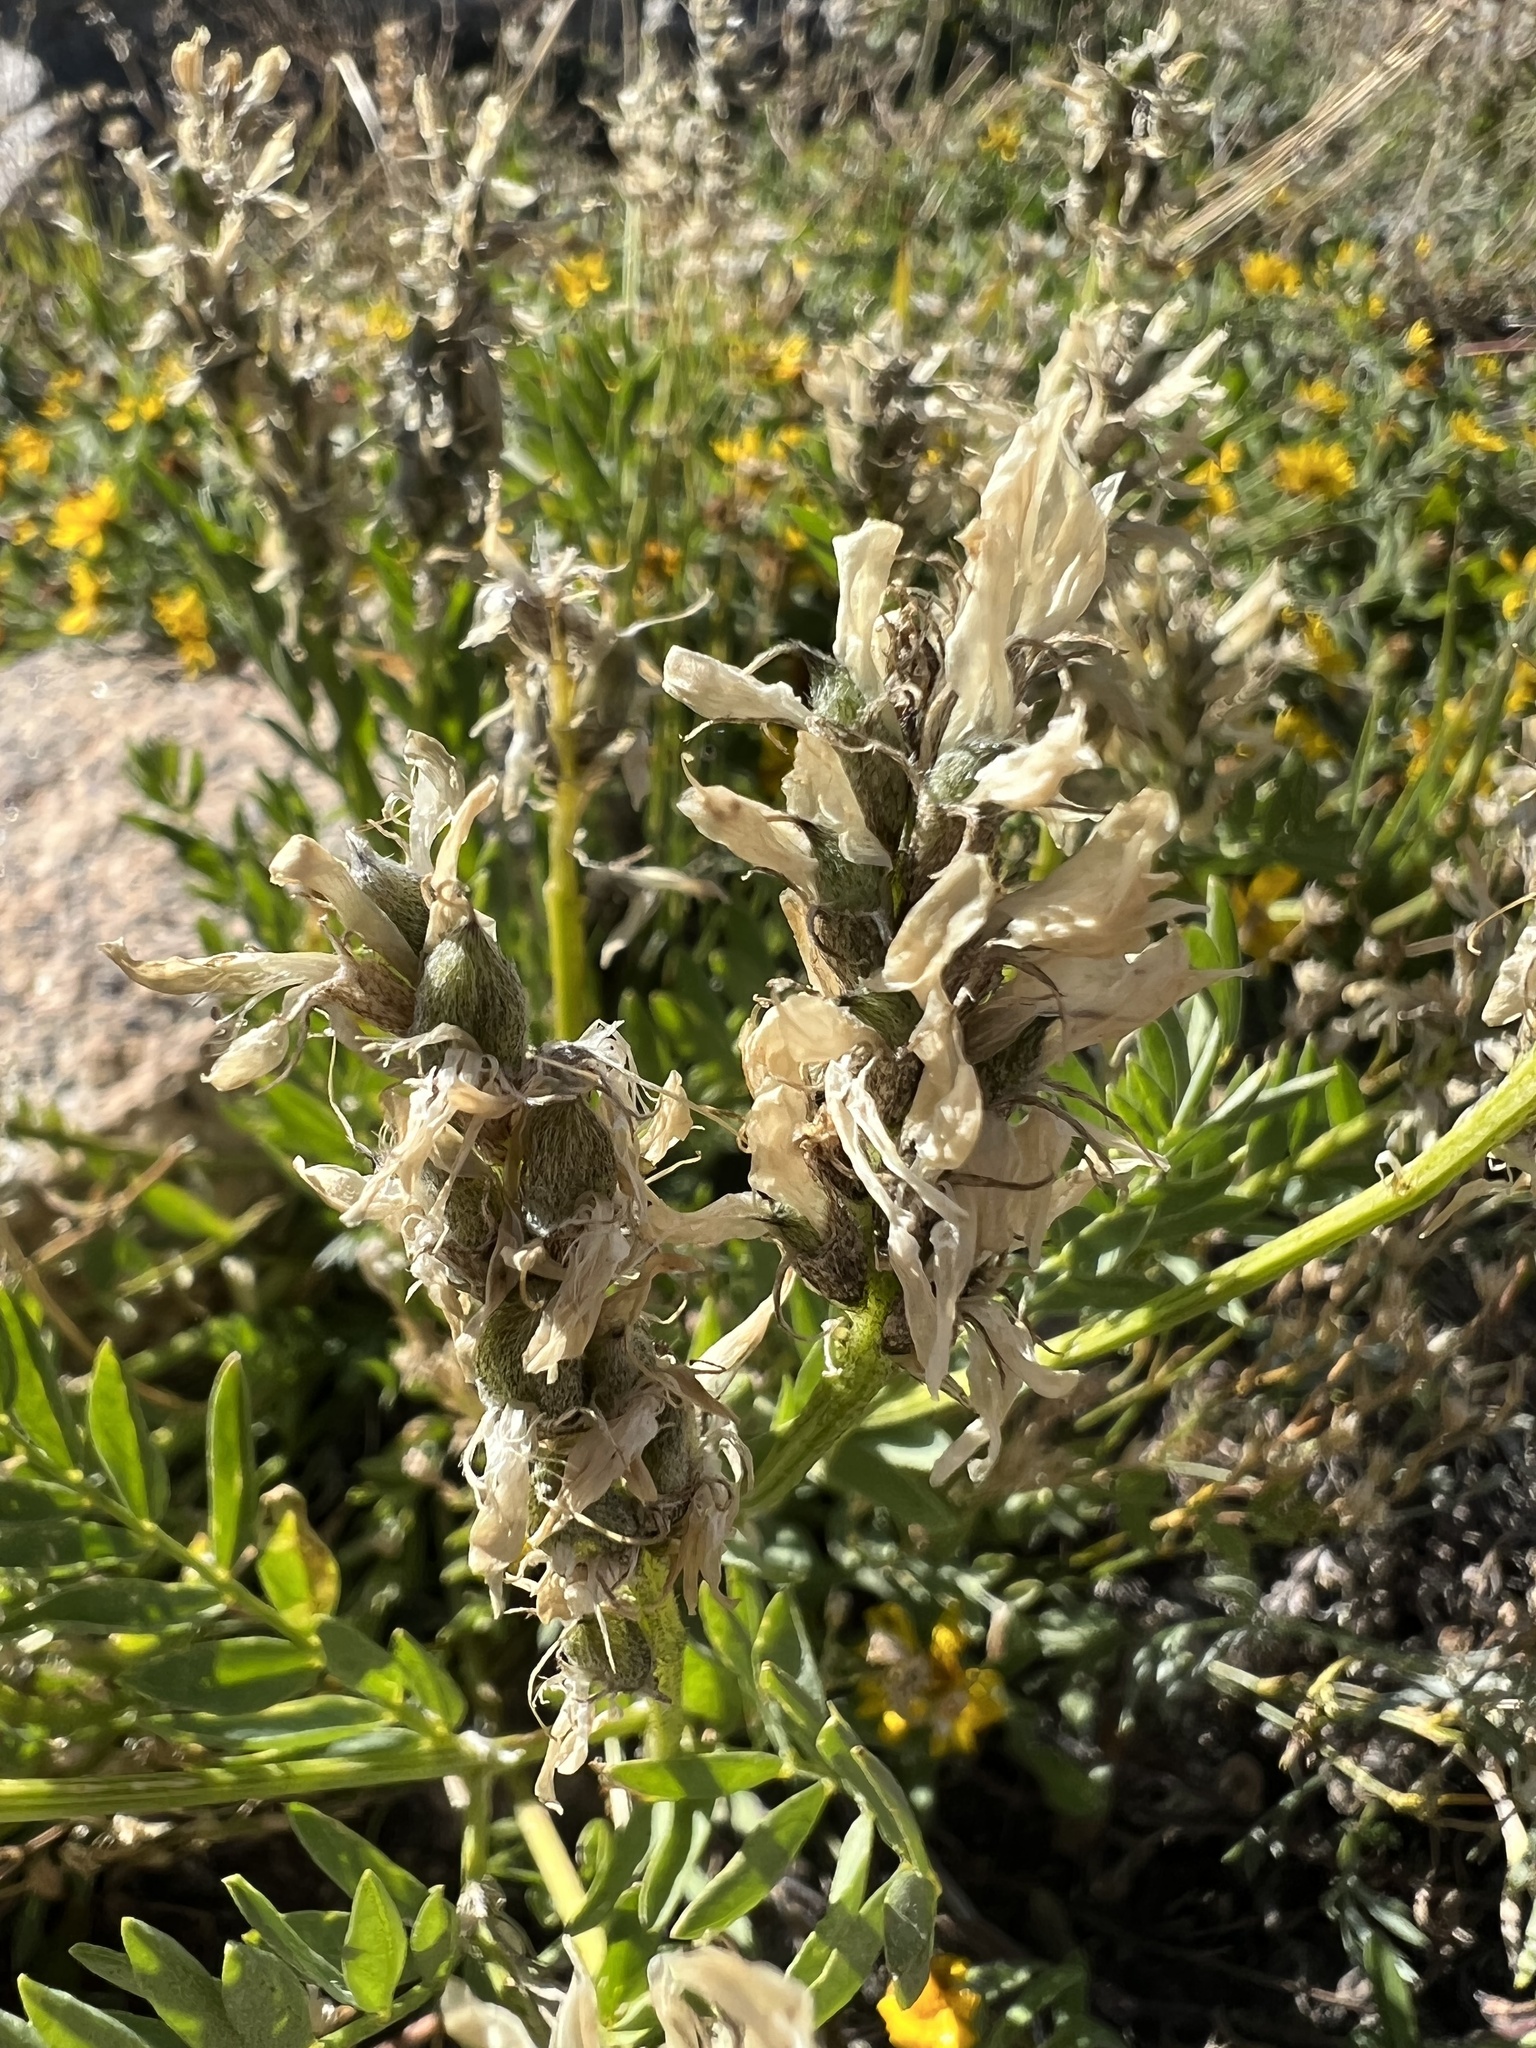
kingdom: Plantae
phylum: Tracheophyta
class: Magnoliopsida
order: Fabales
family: Fabaceae
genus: Astragalus
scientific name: Astragalus laxmannii
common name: Laxmann's milk-vetch
